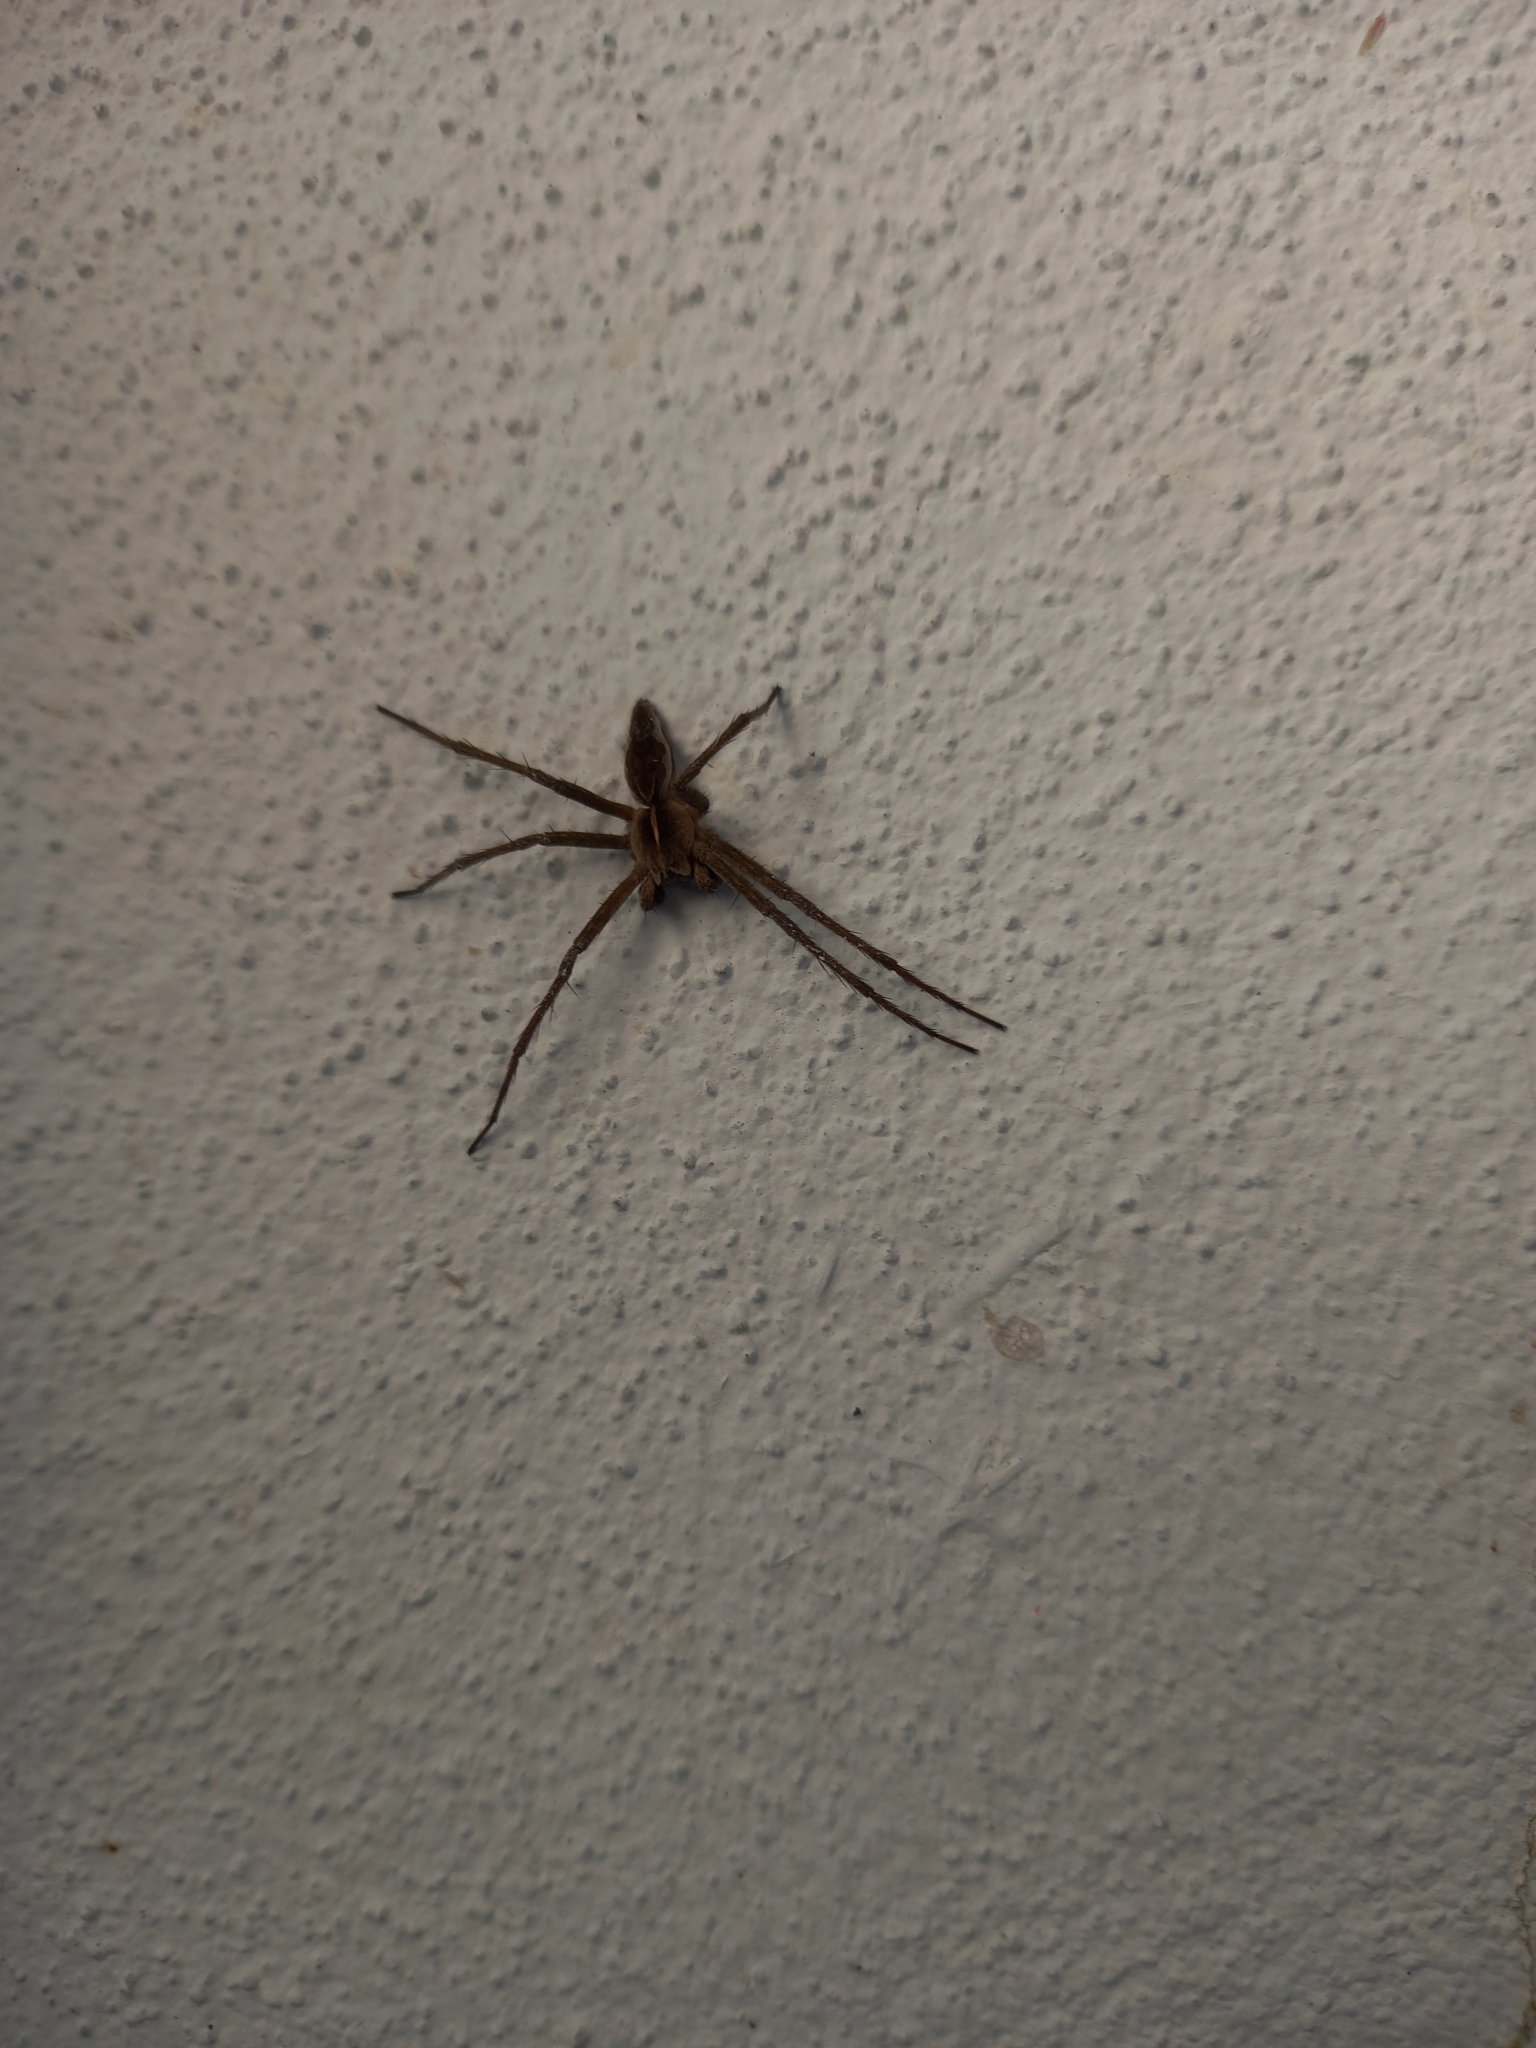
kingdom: Animalia
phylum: Arthropoda
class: Arachnida
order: Araneae
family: Pisauridae
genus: Pisaura
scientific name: Pisaura mirabilis
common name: Tent spider
